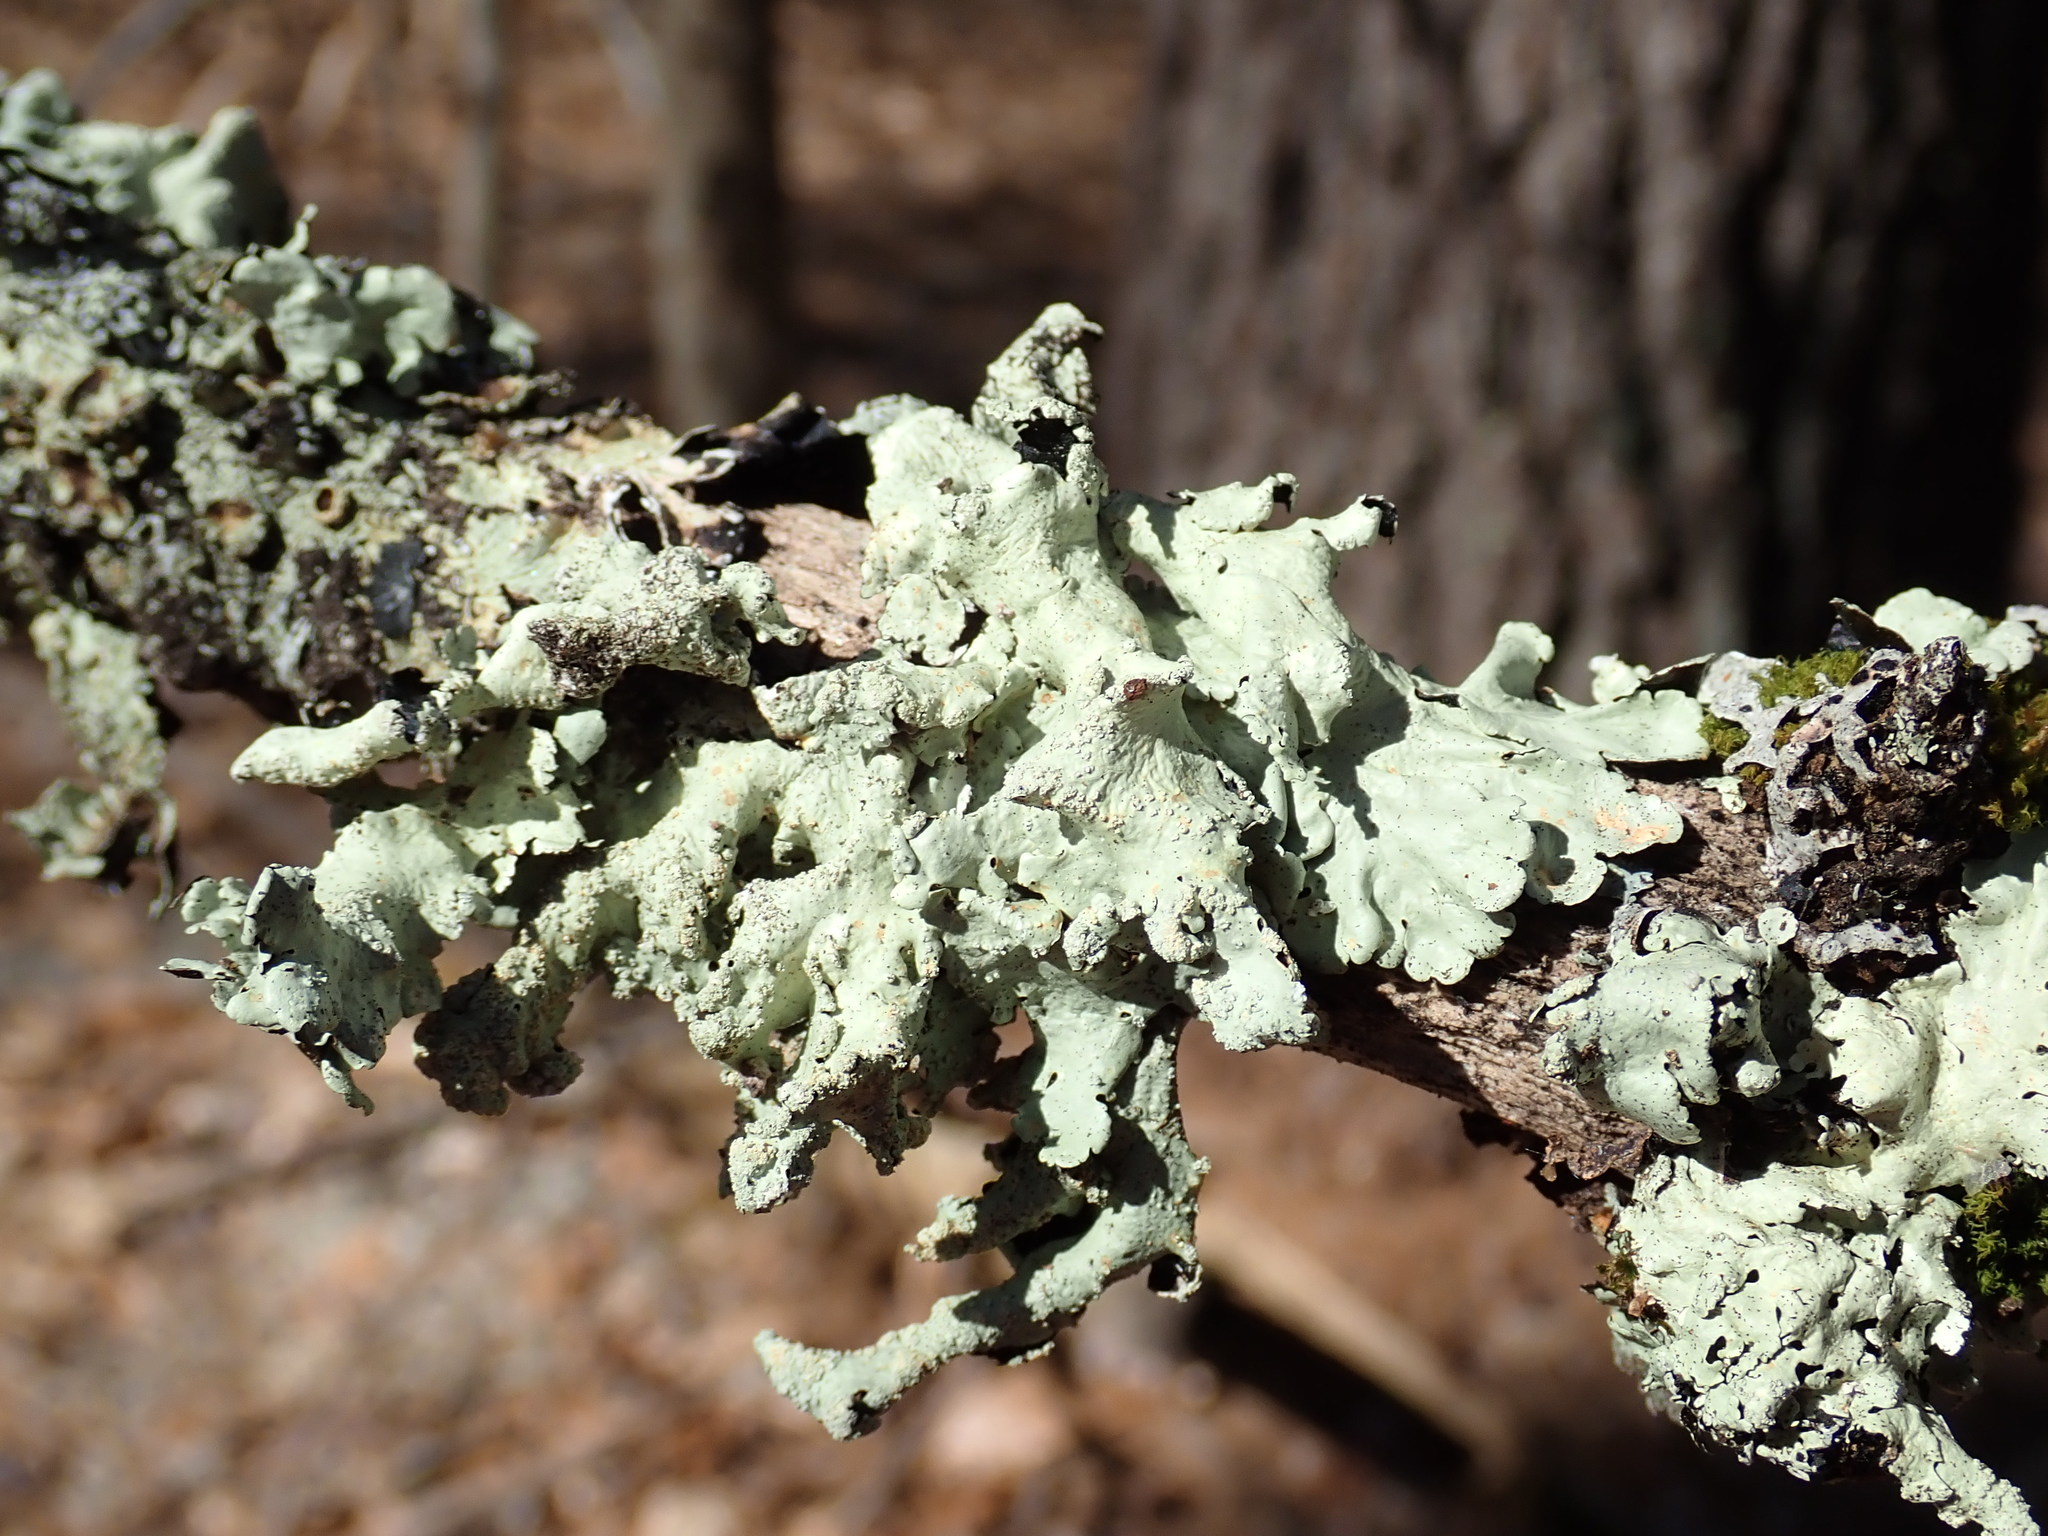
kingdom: Fungi
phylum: Ascomycota
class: Lecanoromycetes
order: Lecanorales
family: Parmeliaceae
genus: Flavoparmelia
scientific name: Flavoparmelia caperata
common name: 40-mile per hour lichen
